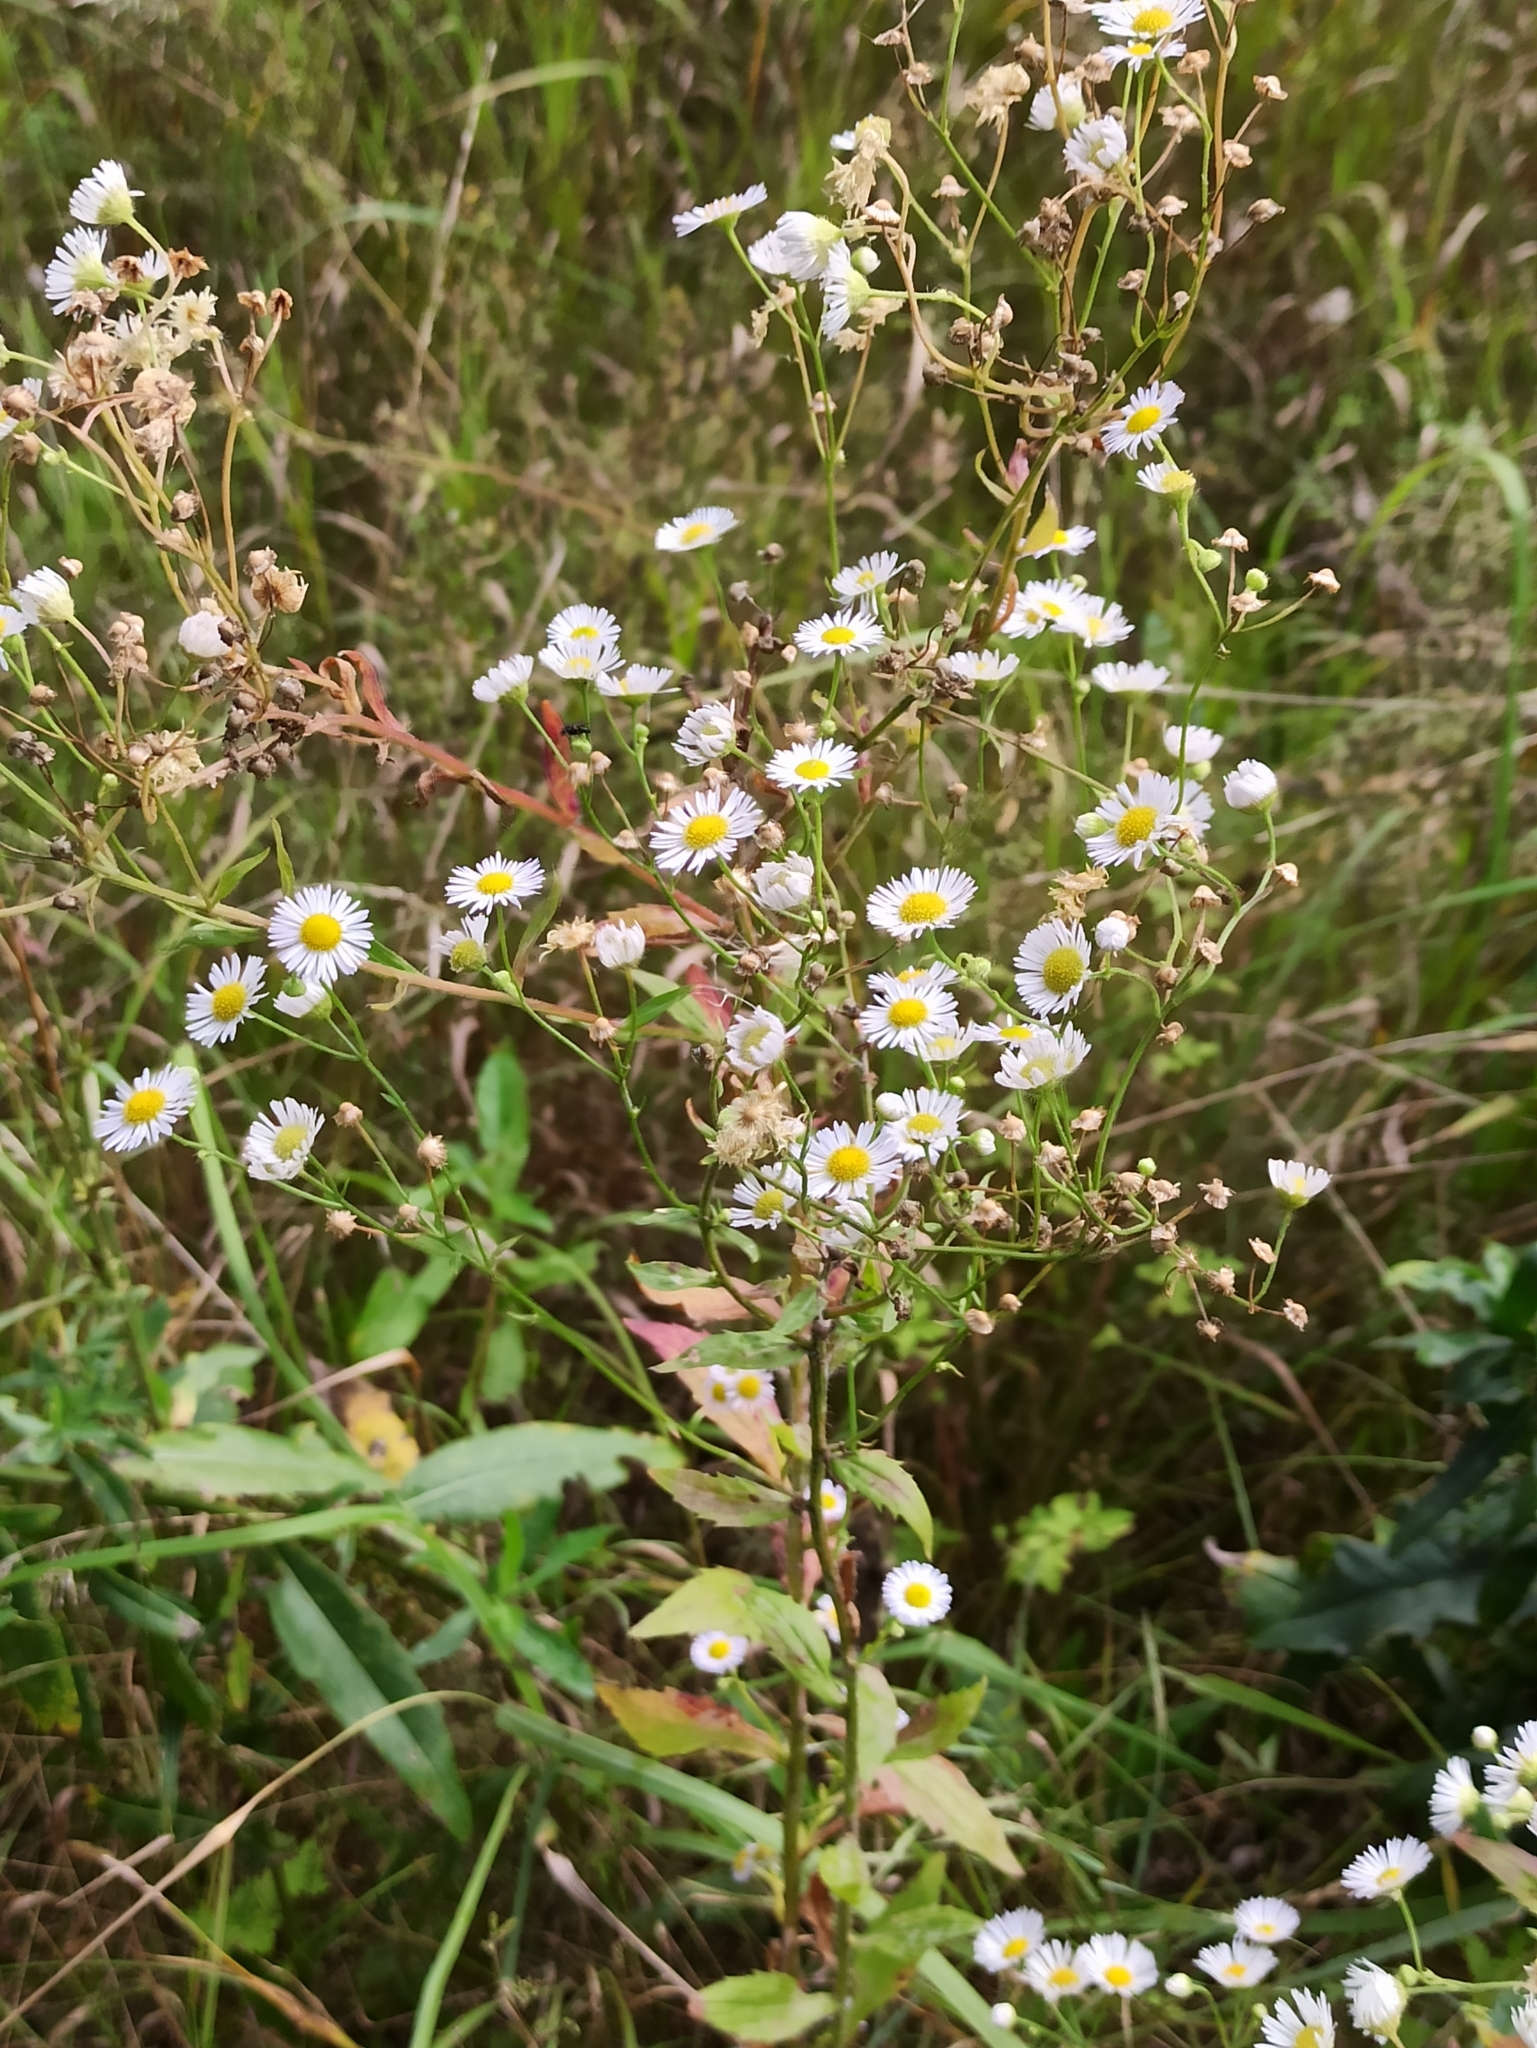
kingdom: Plantae
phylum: Tracheophyta
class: Magnoliopsida
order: Asterales
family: Asteraceae
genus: Erigeron
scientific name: Erigeron annuus
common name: Tall fleabane
